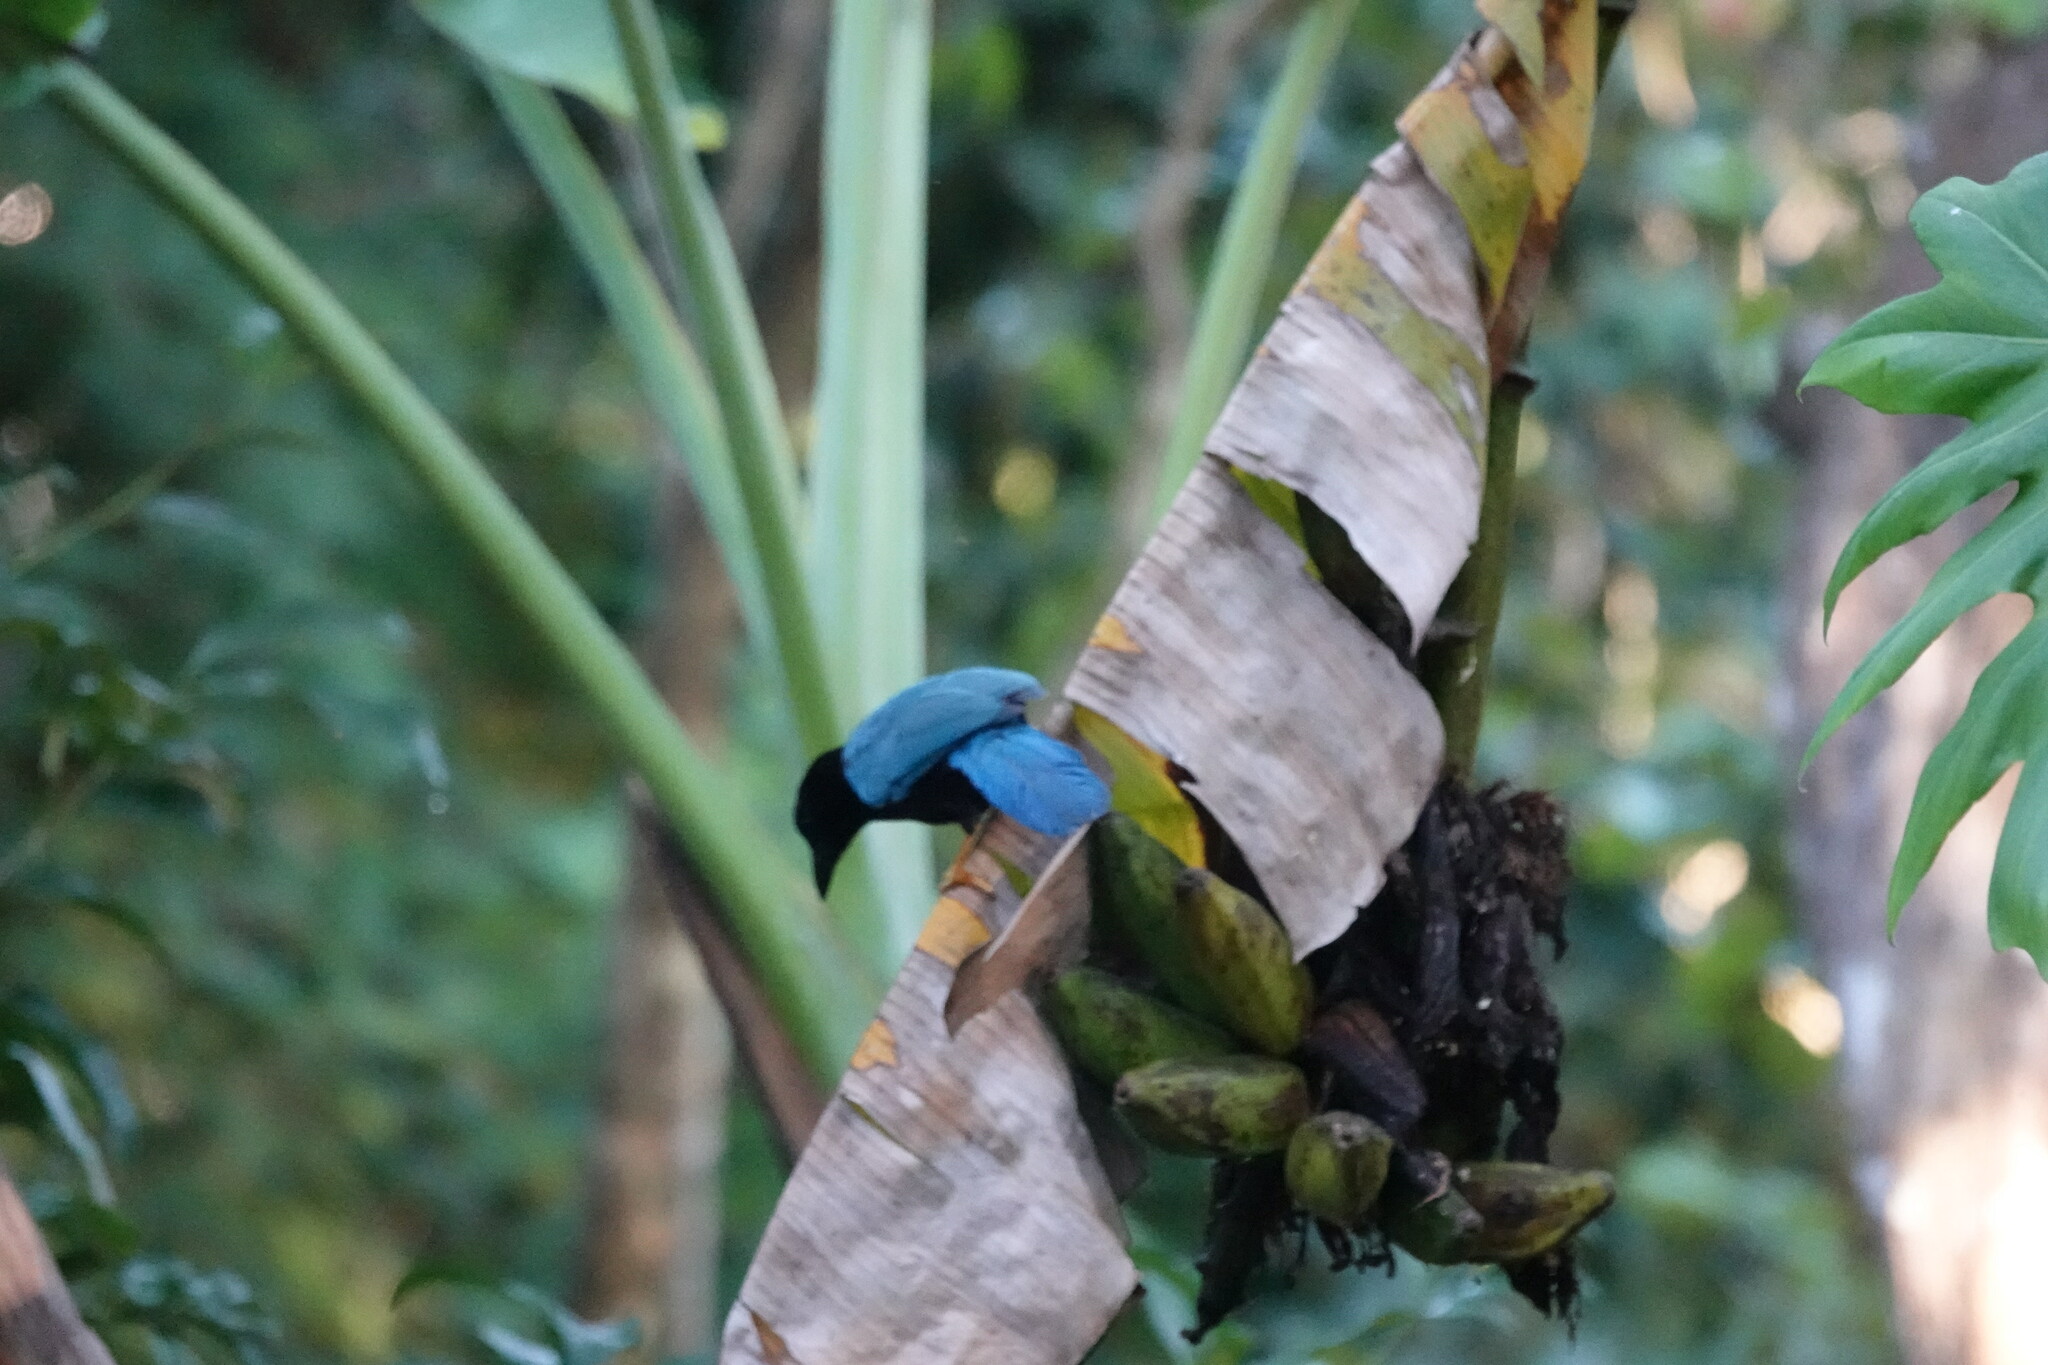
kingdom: Animalia
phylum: Chordata
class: Aves
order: Passeriformes
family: Corvidae
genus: Cyanocorax
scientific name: Cyanocorax yucatanicus
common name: Yucatan jay
